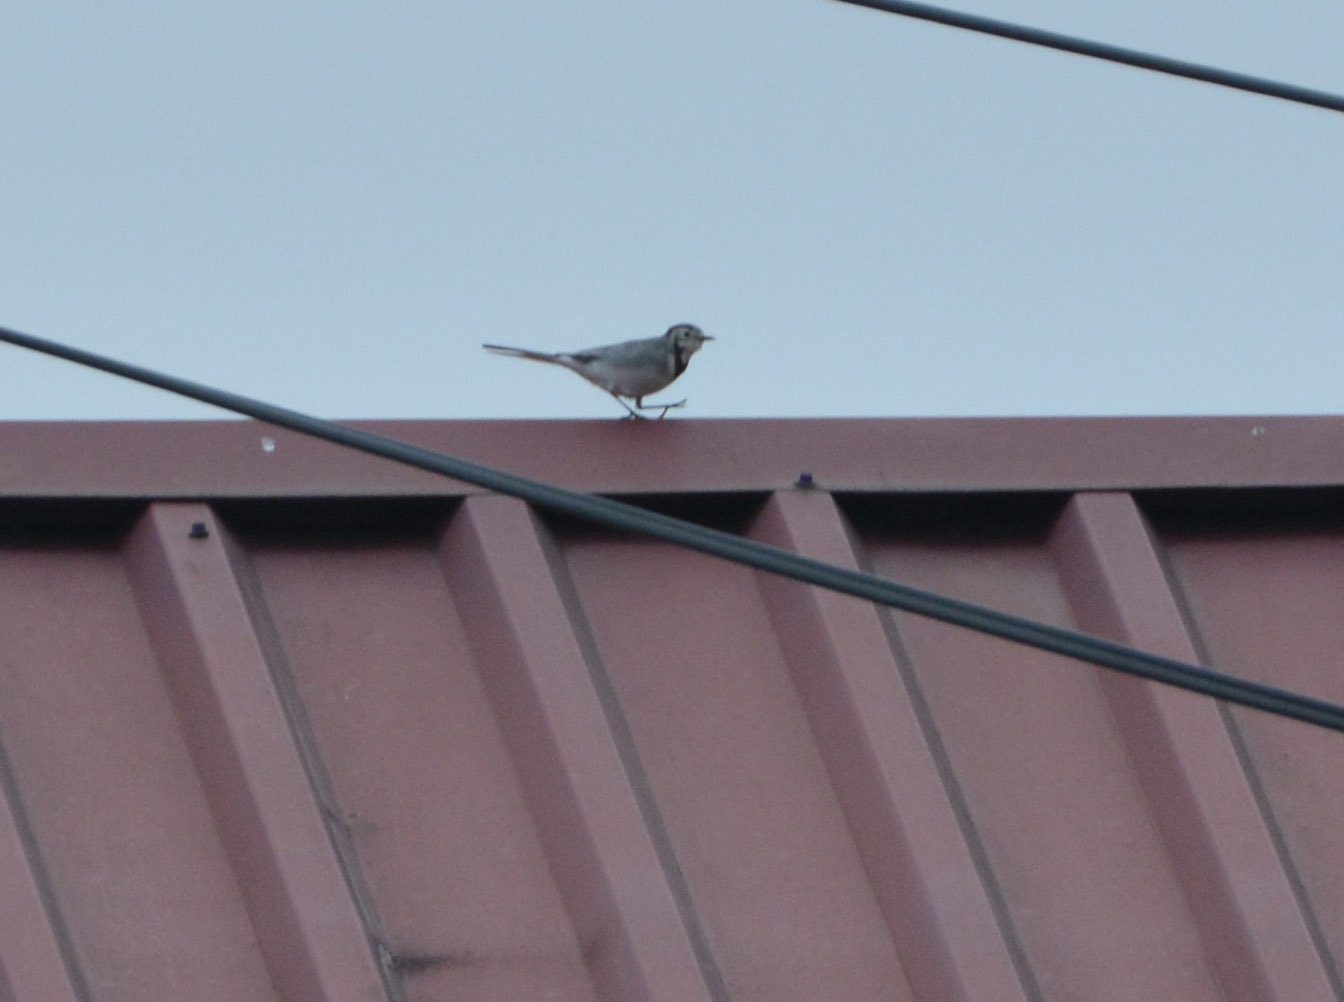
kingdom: Animalia
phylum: Chordata
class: Aves
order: Passeriformes
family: Motacillidae
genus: Motacilla
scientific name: Motacilla alba
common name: White wagtail
